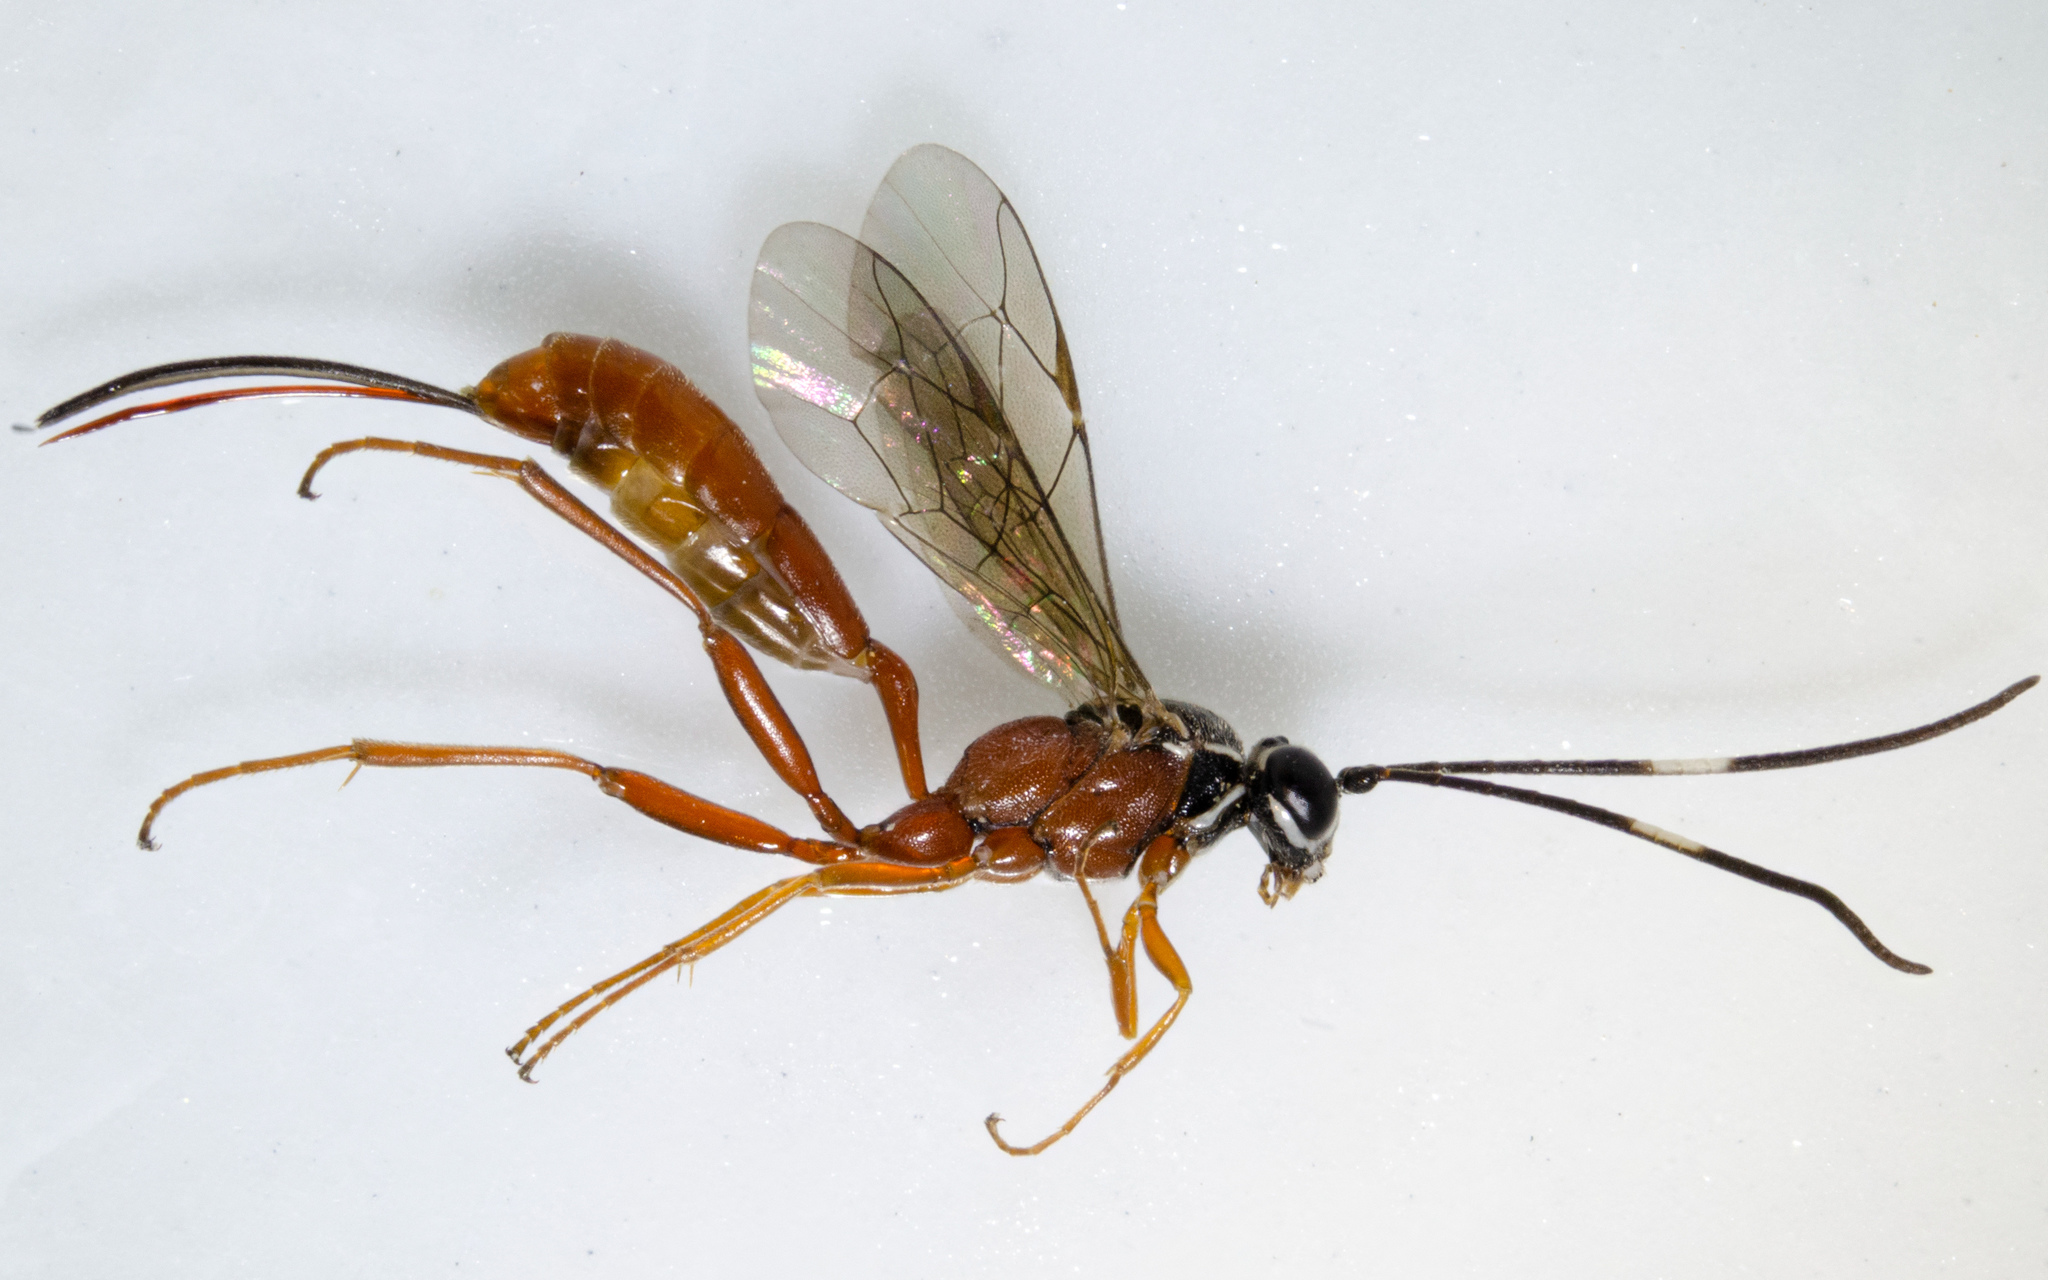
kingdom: Animalia
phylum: Arthropoda
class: Insecta
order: Hymenoptera
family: Ichneumonidae
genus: Mesostenus
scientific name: Mesostenus gracilis
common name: Parasitoid wasp
